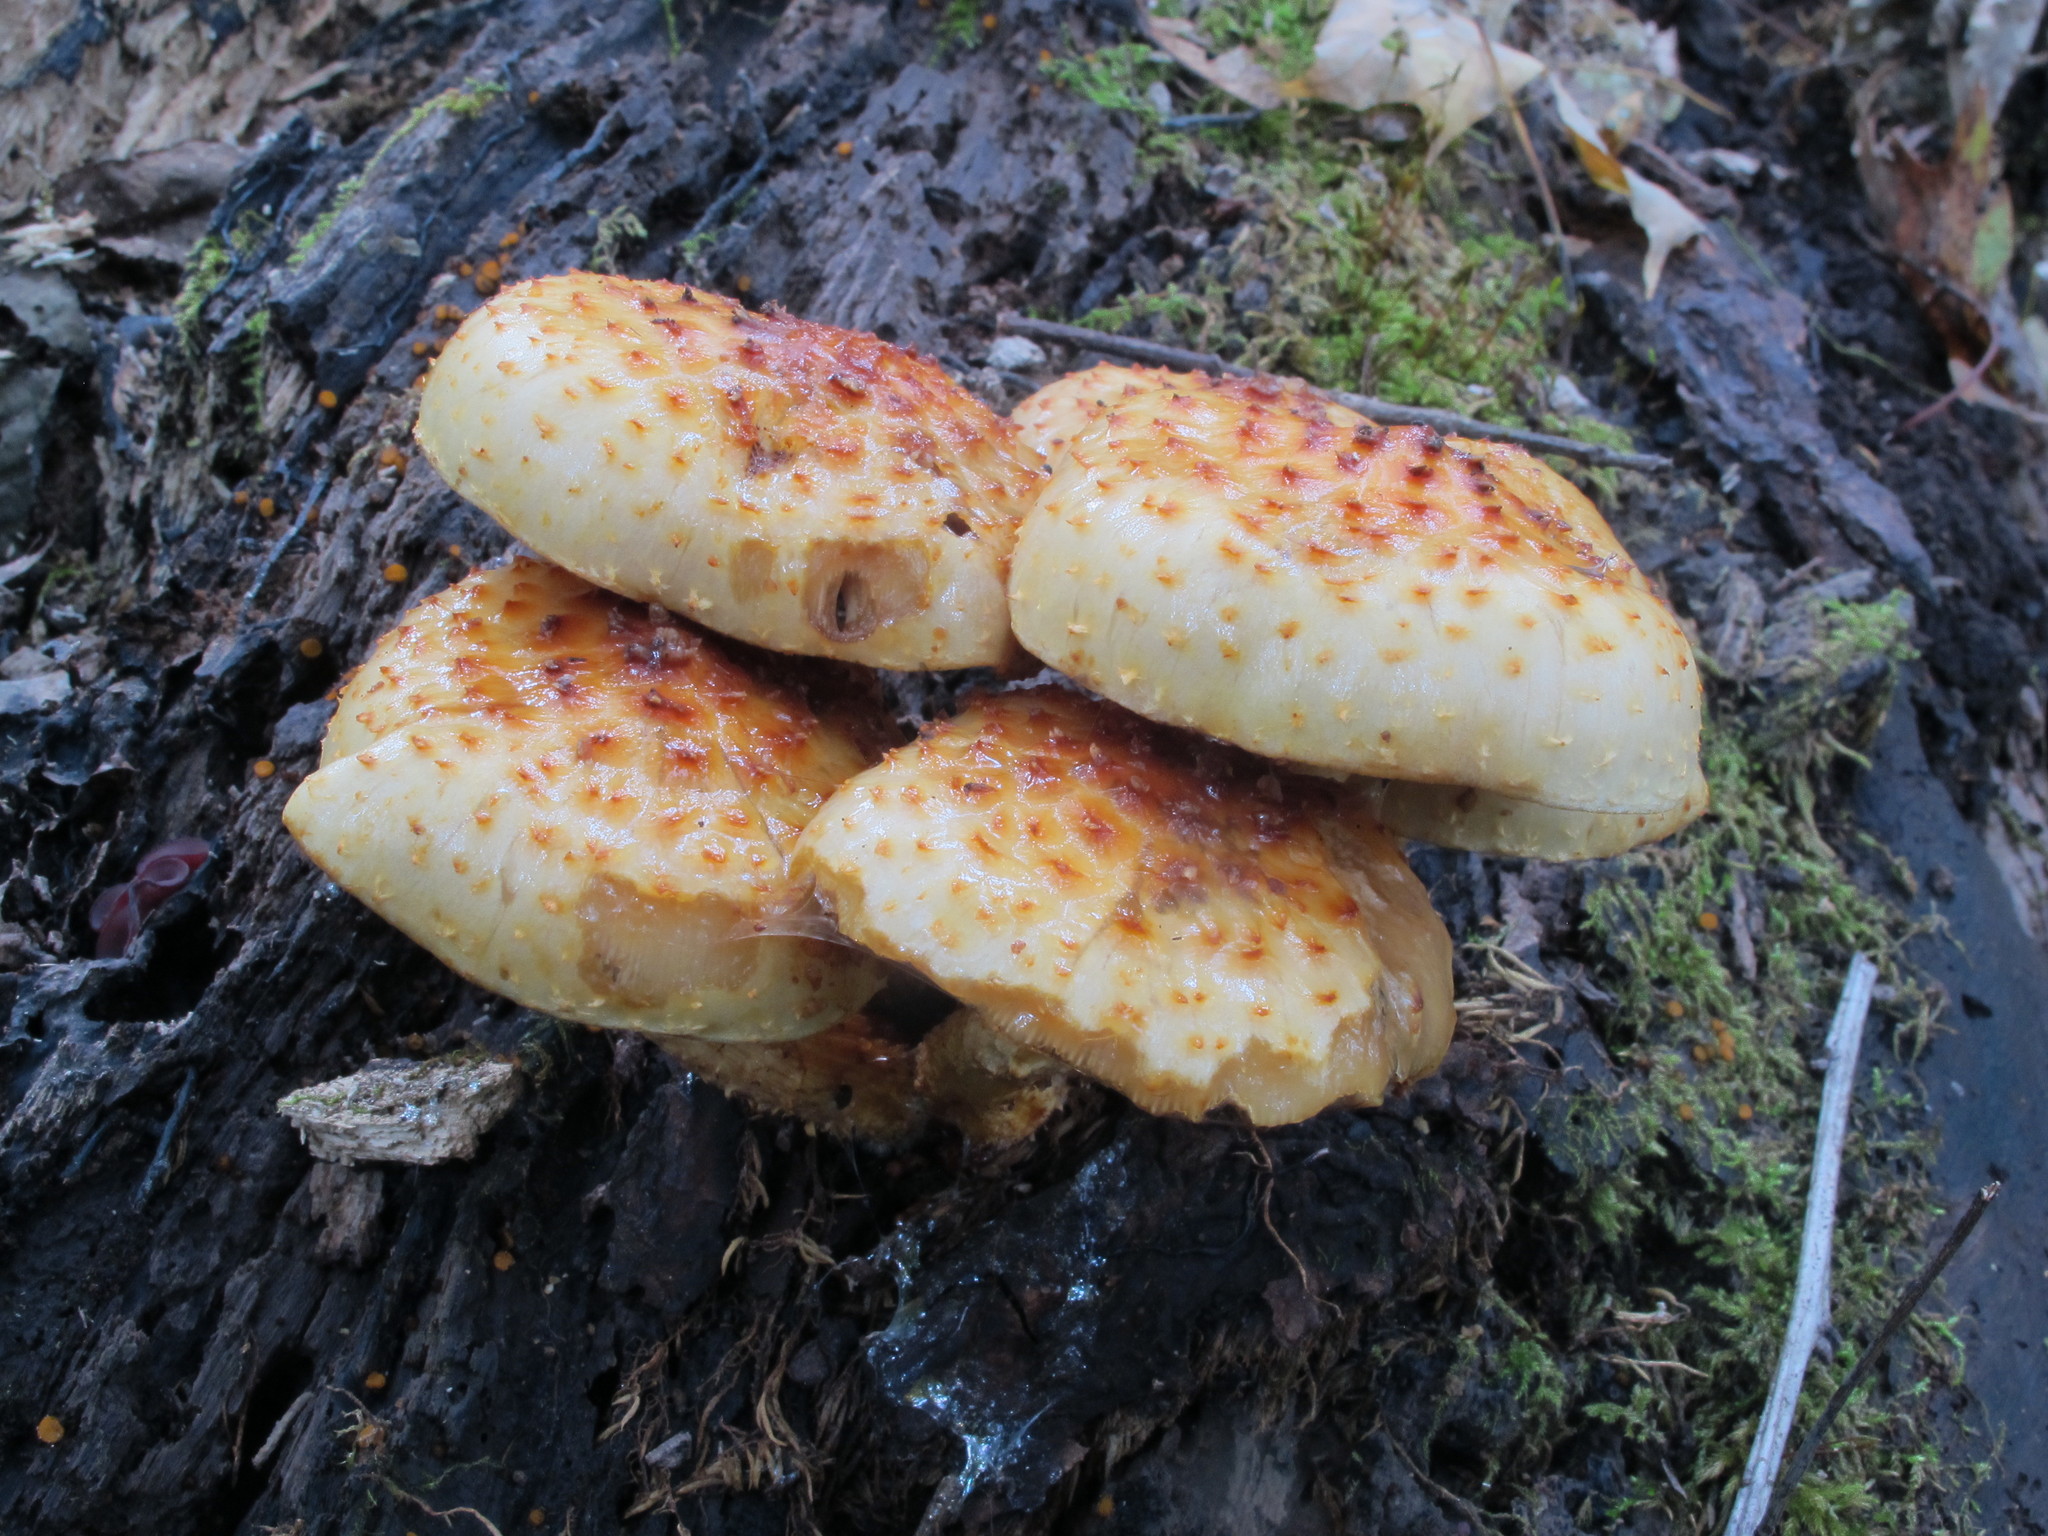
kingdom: Fungi
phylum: Basidiomycota
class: Agaricomycetes
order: Agaricales
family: Strophariaceae
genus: Pholiota
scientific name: Pholiota aurivella
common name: Golden scalycap
